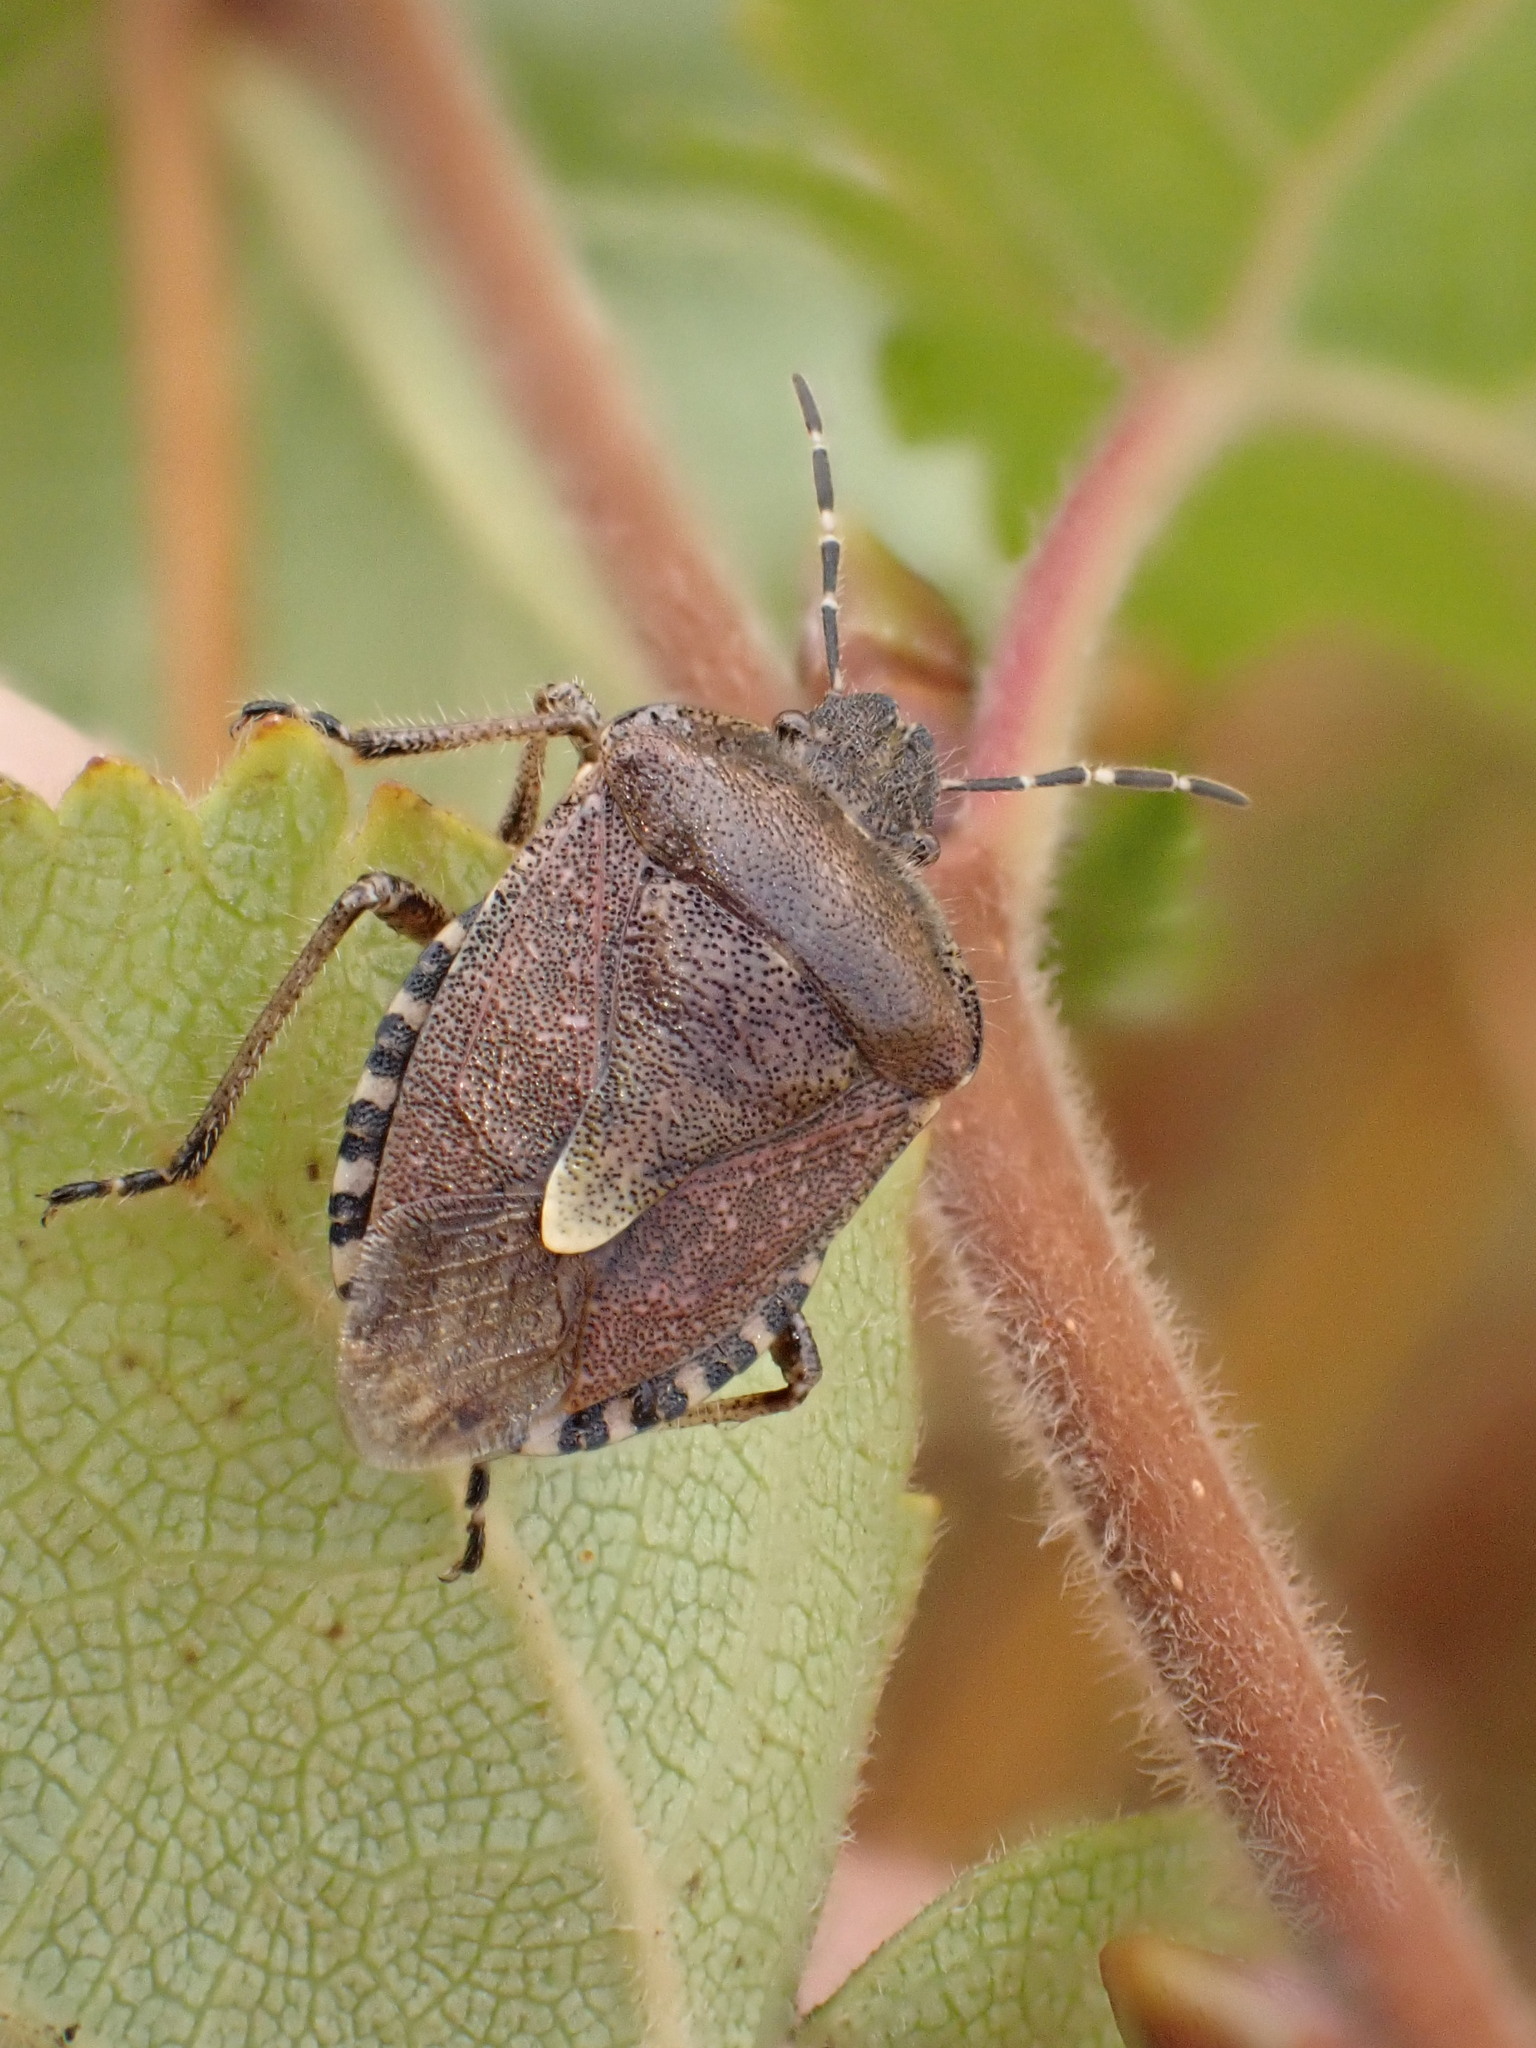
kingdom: Animalia
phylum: Arthropoda
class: Insecta
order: Hemiptera
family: Pentatomidae
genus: Dolycoris
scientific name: Dolycoris baccarum
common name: Sloe bug
